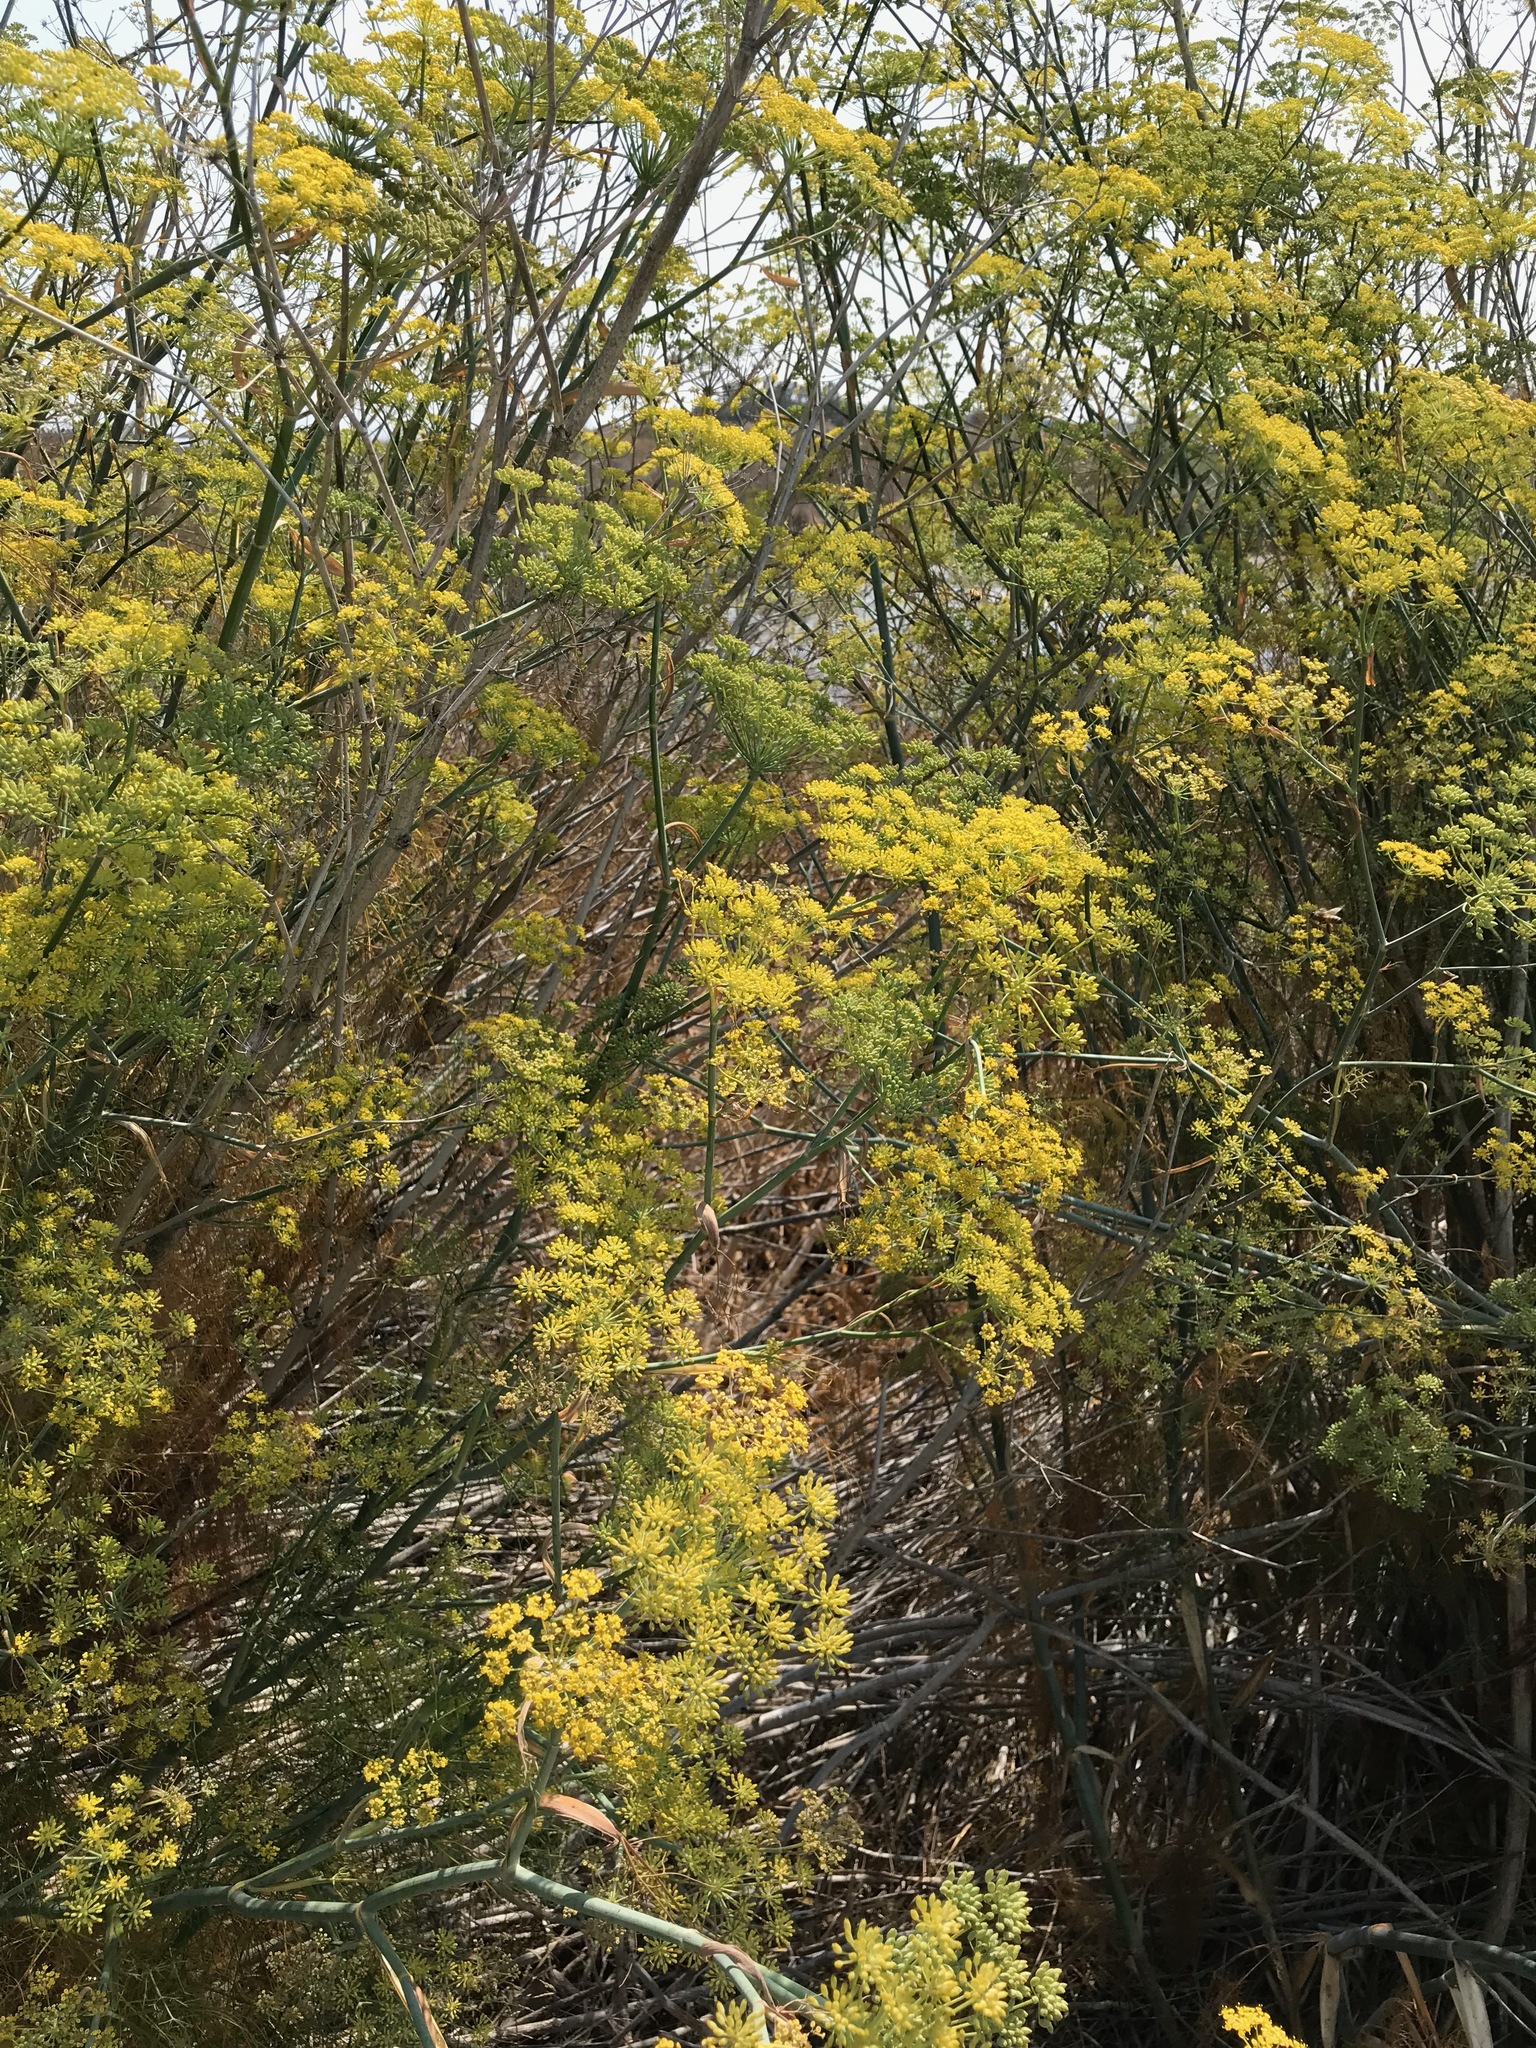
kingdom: Plantae
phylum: Tracheophyta
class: Magnoliopsida
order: Apiales
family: Apiaceae
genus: Foeniculum
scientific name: Foeniculum vulgare
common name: Fennel
